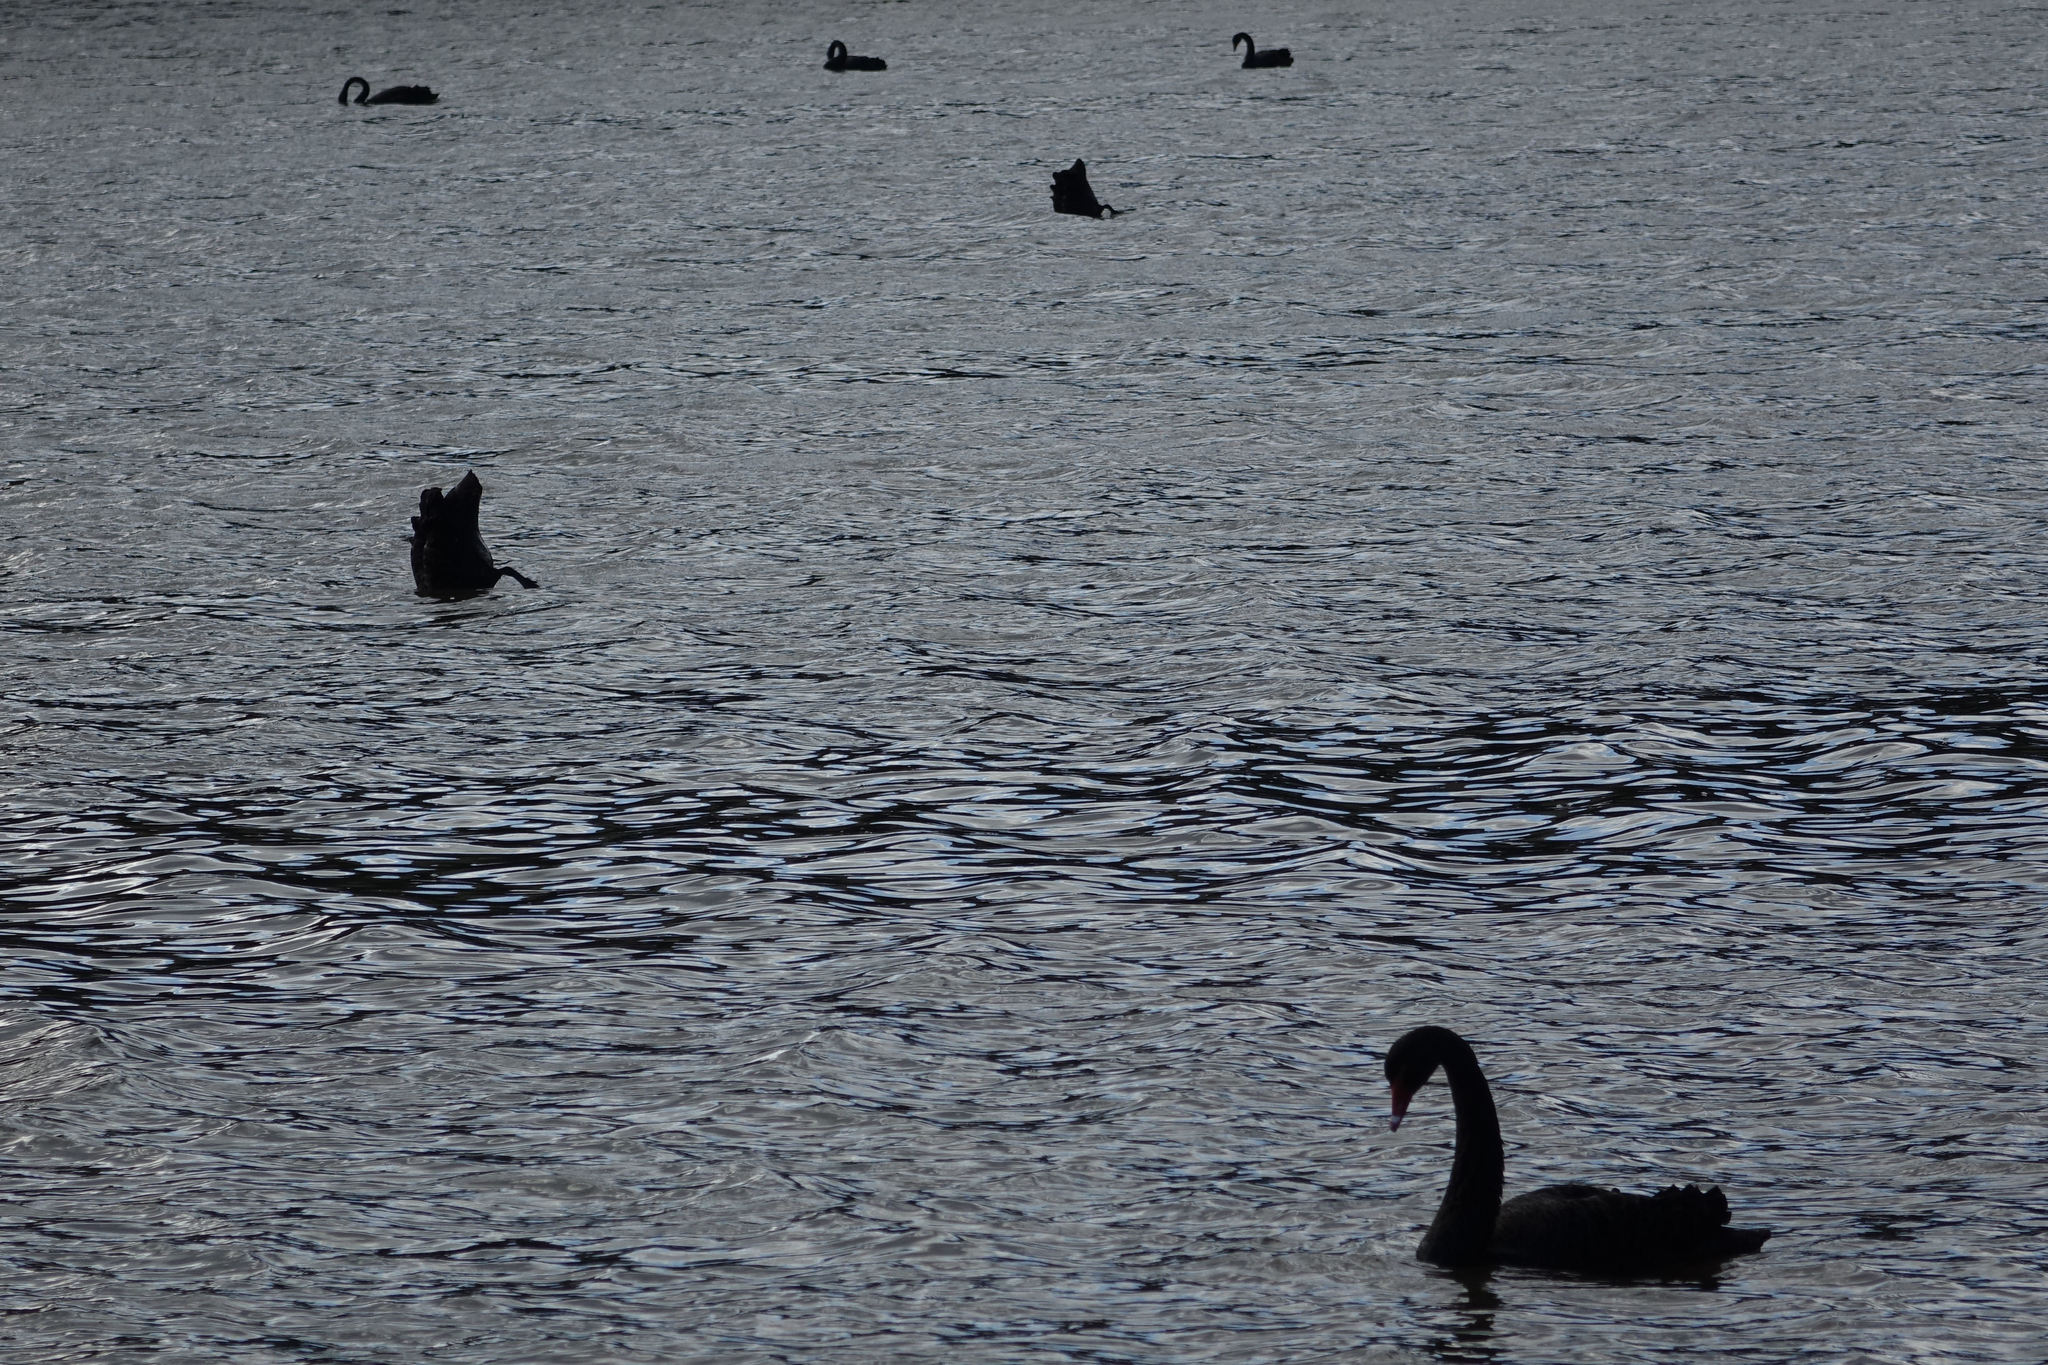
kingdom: Animalia
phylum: Chordata
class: Aves
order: Anseriformes
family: Anatidae
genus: Cygnus
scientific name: Cygnus atratus
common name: Black swan
